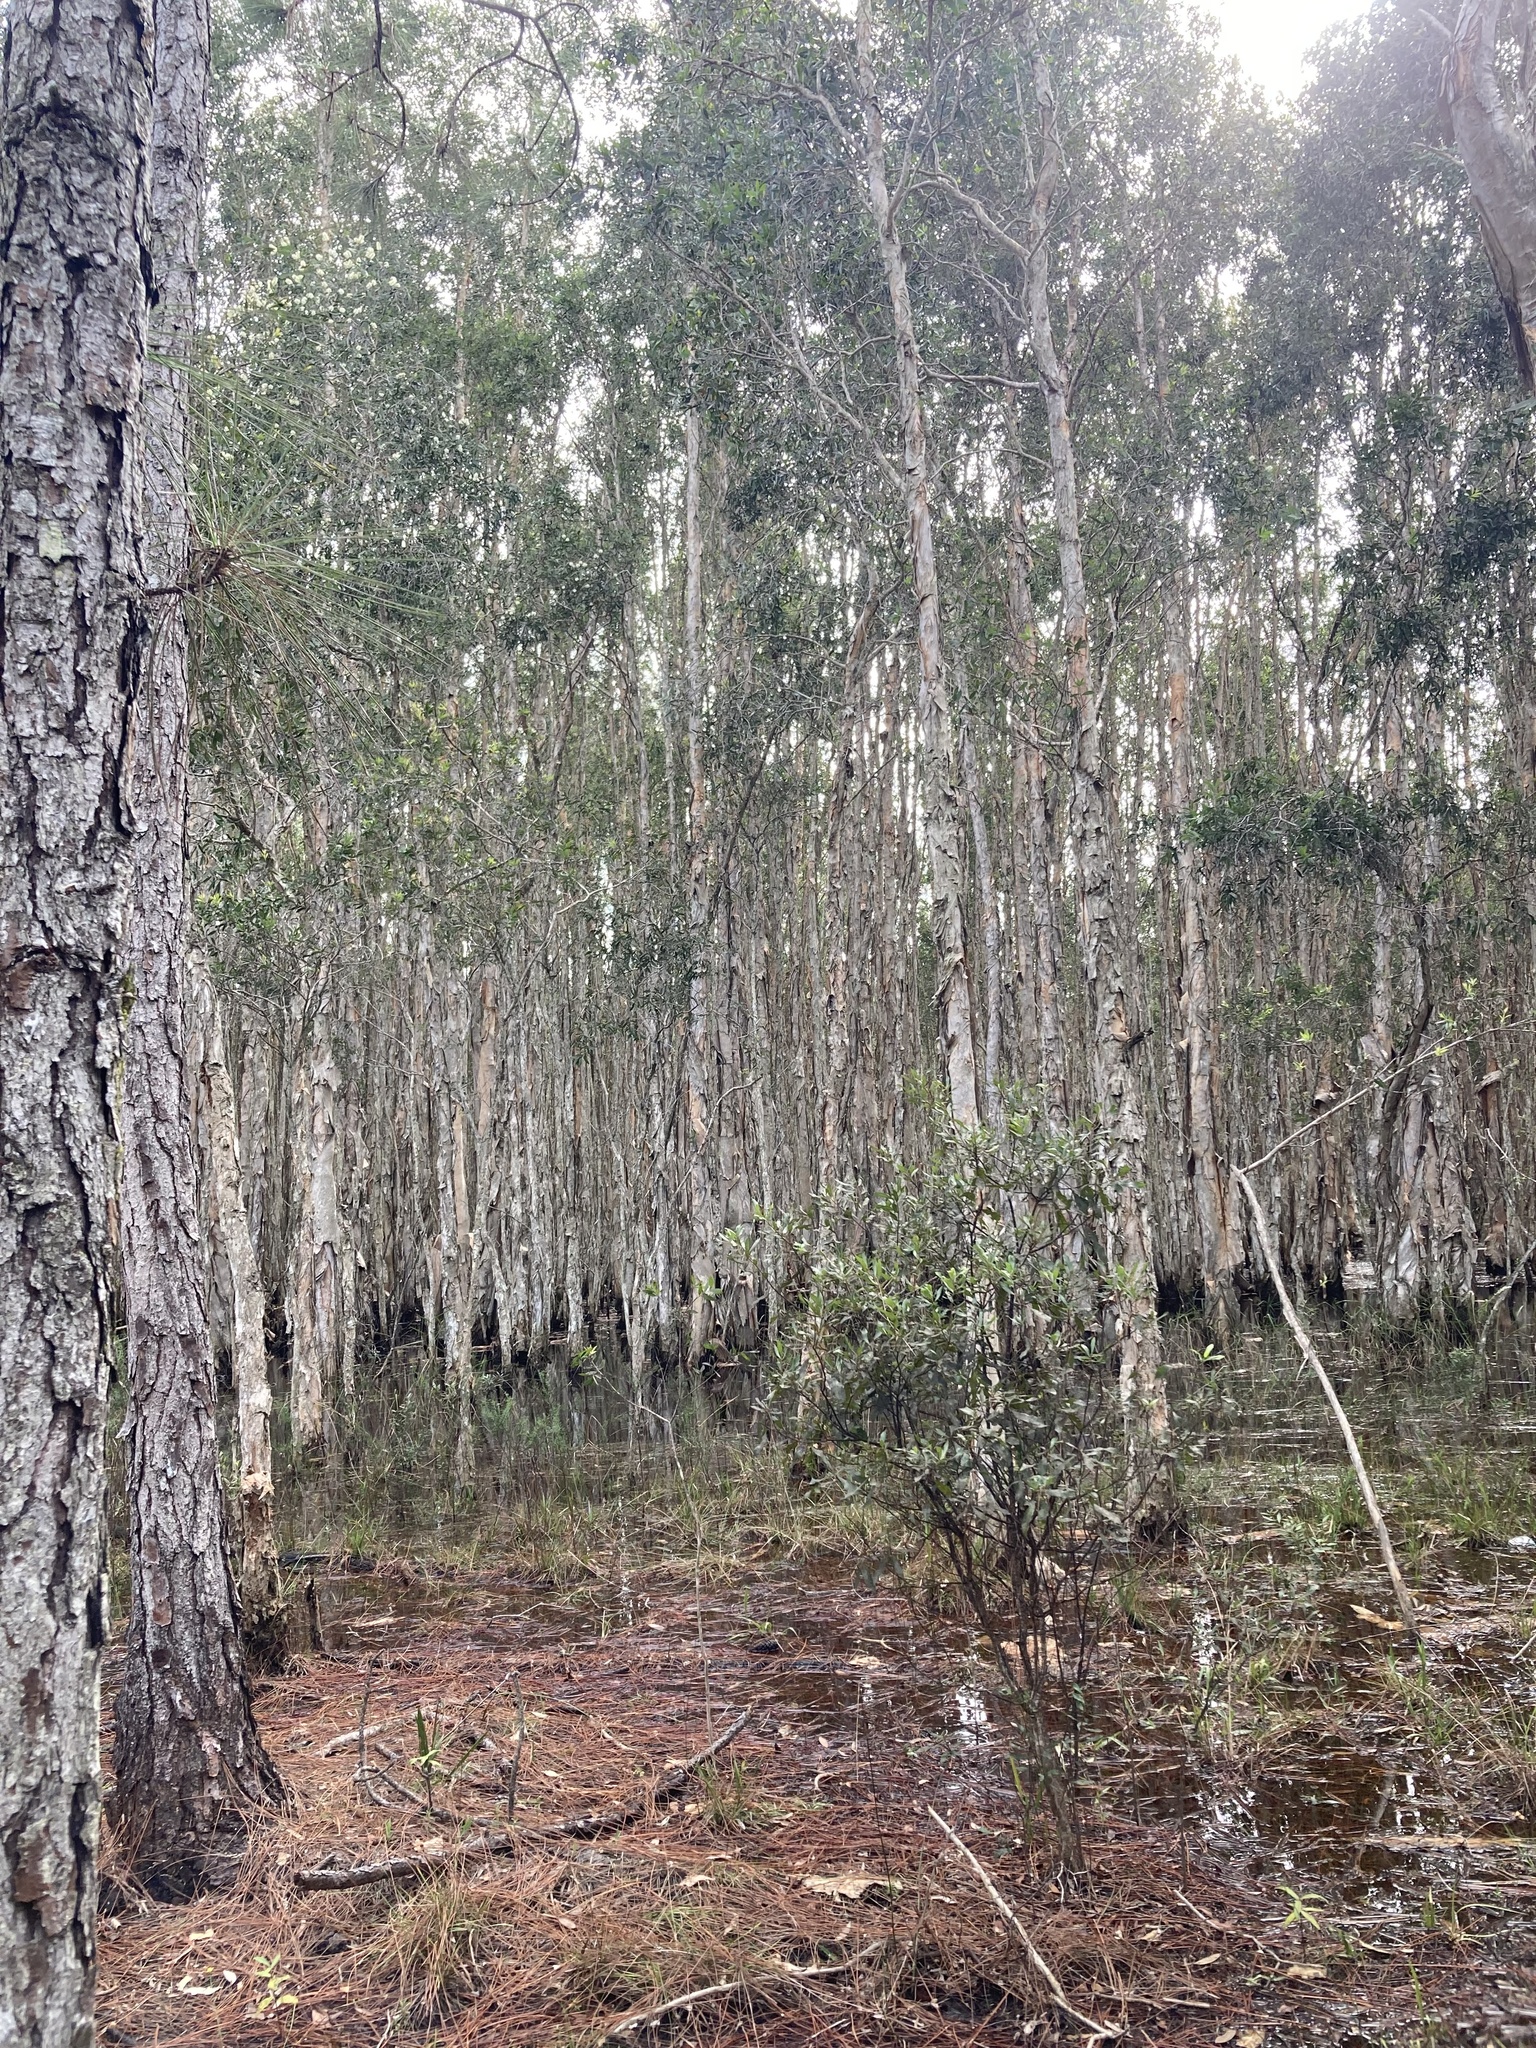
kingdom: Plantae
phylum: Tracheophyta
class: Magnoliopsida
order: Myrtales
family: Myrtaceae
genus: Melaleuca
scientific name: Melaleuca quinquenervia
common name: Punktree
